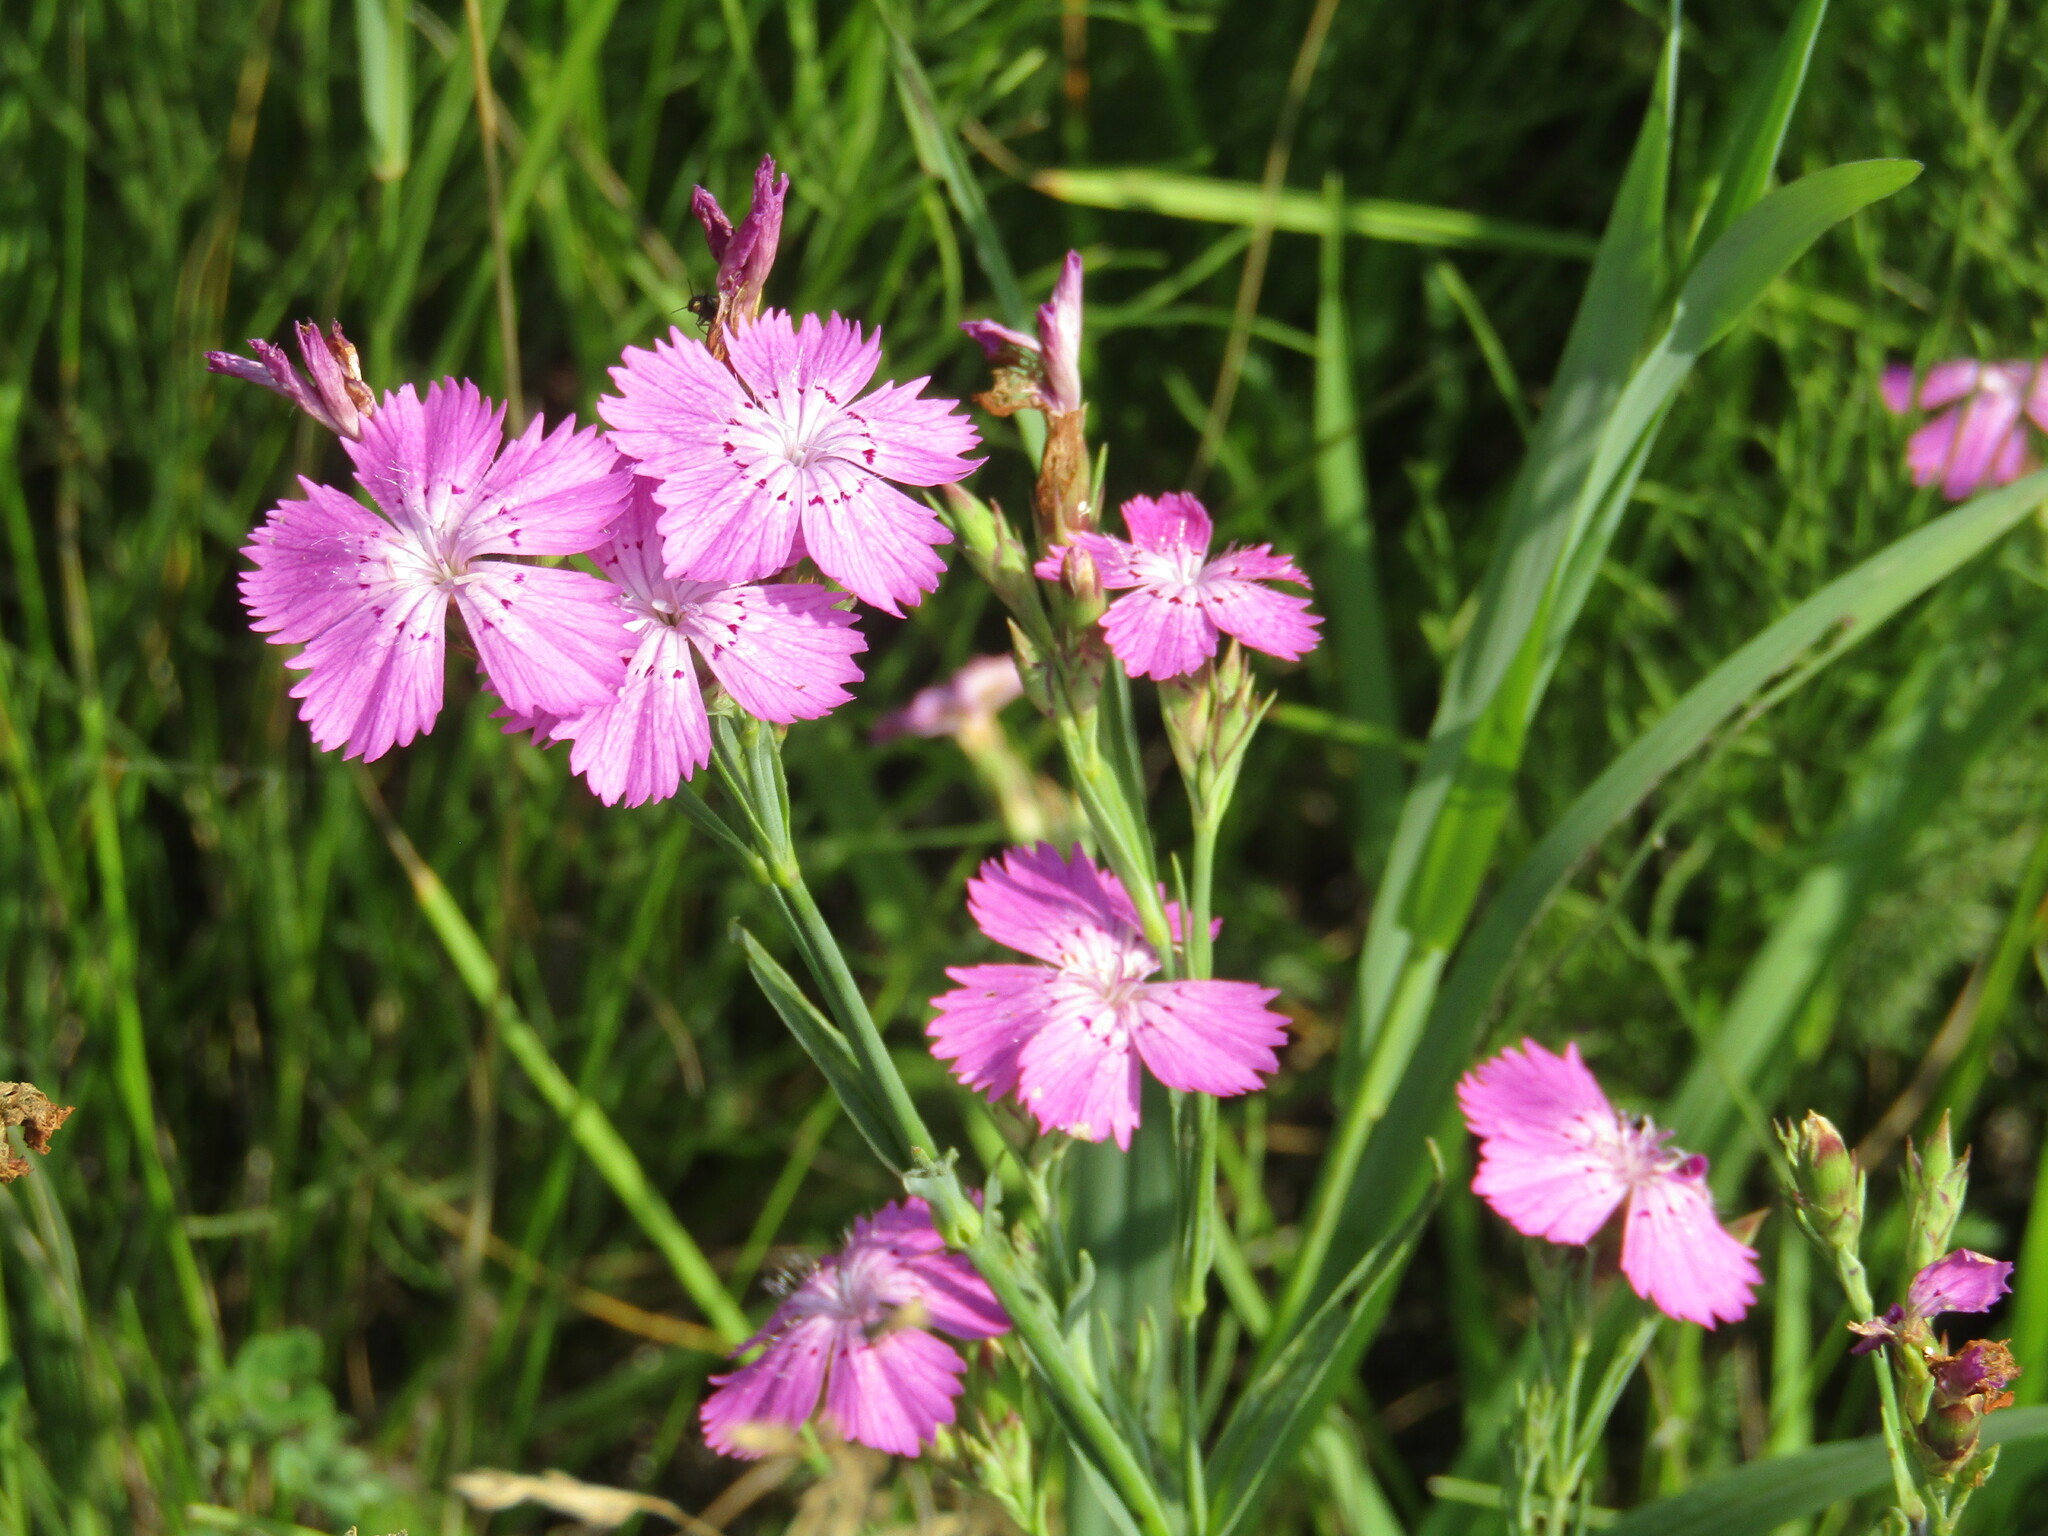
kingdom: Plantae
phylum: Tracheophyta
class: Magnoliopsida
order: Caryophyllales
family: Caryophyllaceae
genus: Dianthus
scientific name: Dianthus chinensis
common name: Rainbow pink
